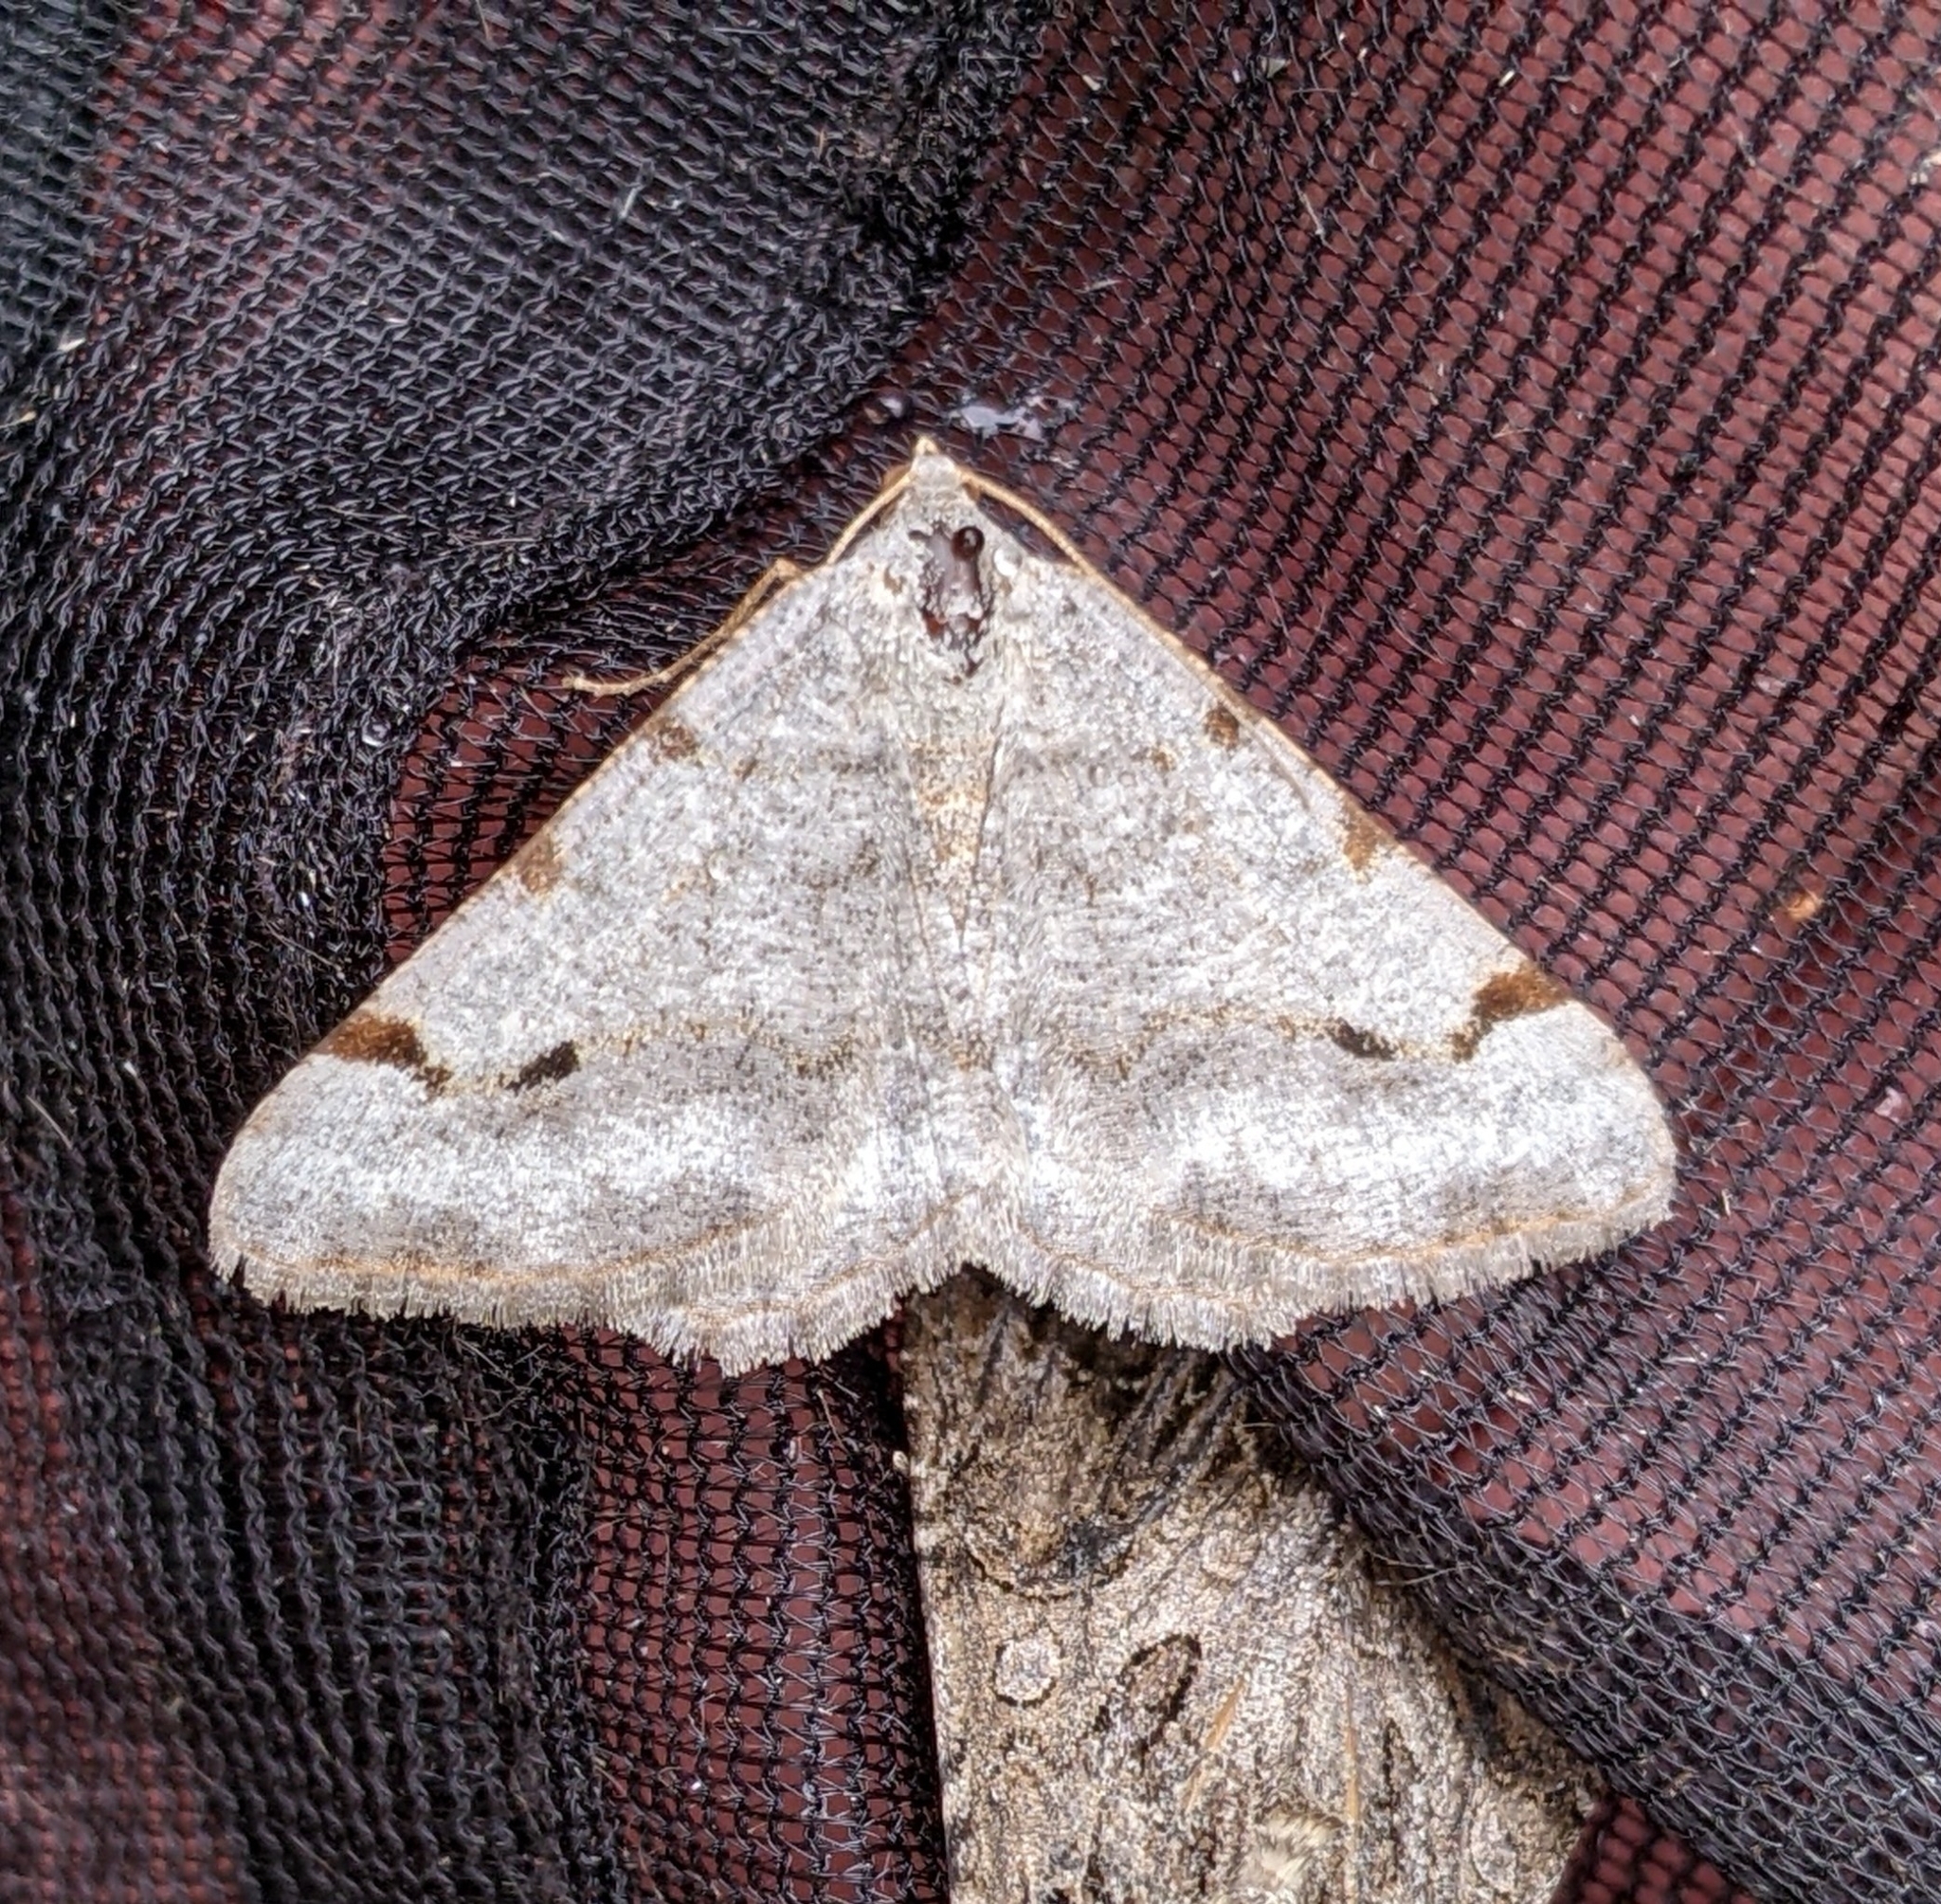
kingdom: Animalia
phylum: Arthropoda
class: Insecta
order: Lepidoptera
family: Geometridae
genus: Digrammia
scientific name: Digrammia triviata
